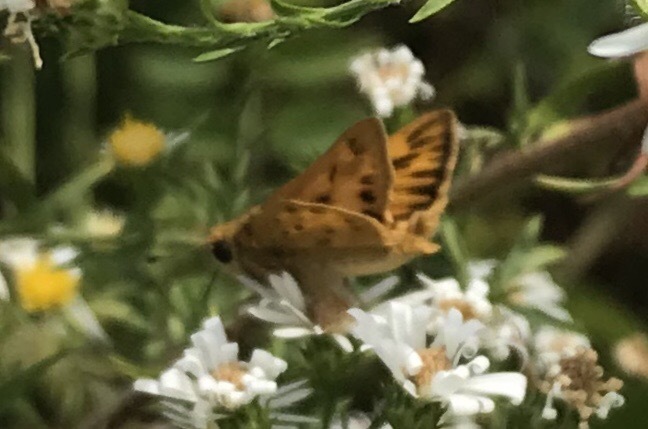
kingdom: Animalia
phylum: Arthropoda
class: Insecta
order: Lepidoptera
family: Hesperiidae
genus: Hylephila
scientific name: Hylephila phyleus
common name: Fiery skipper
